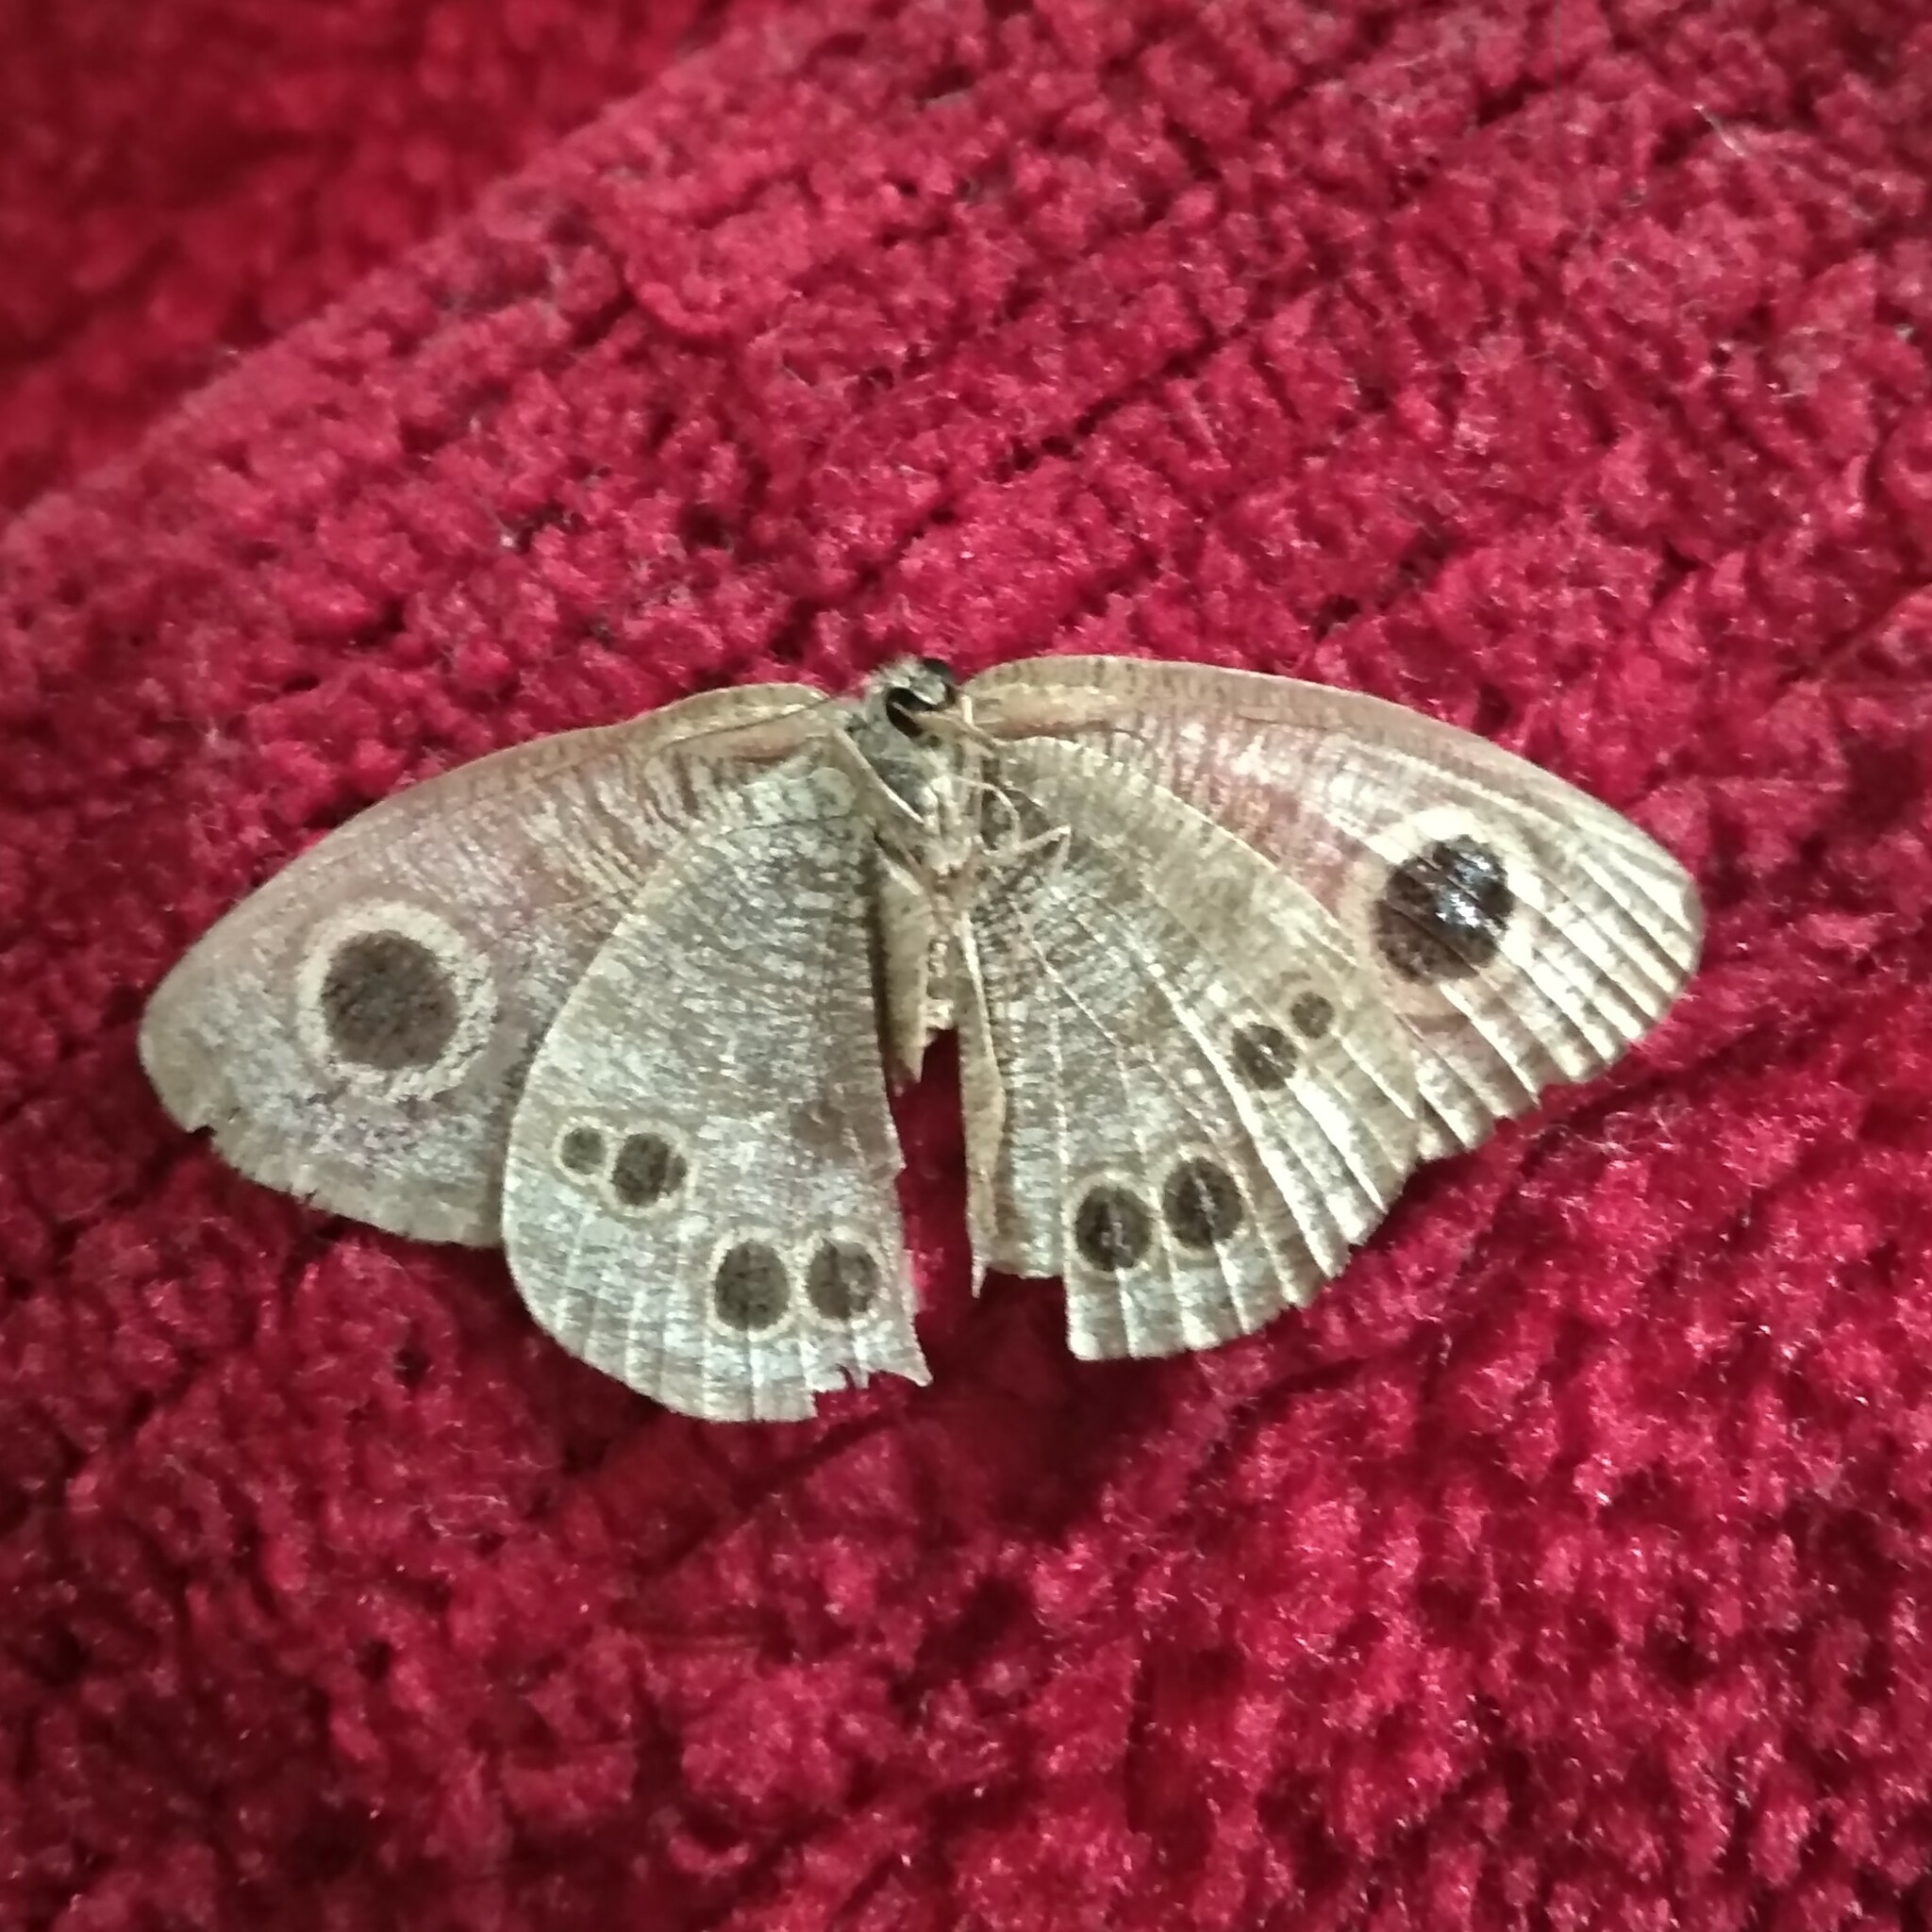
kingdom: Animalia
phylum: Arthropoda
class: Insecta
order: Lepidoptera
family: Nymphalidae
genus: Ypthima
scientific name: Ypthima baldus
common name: Common five-ring
